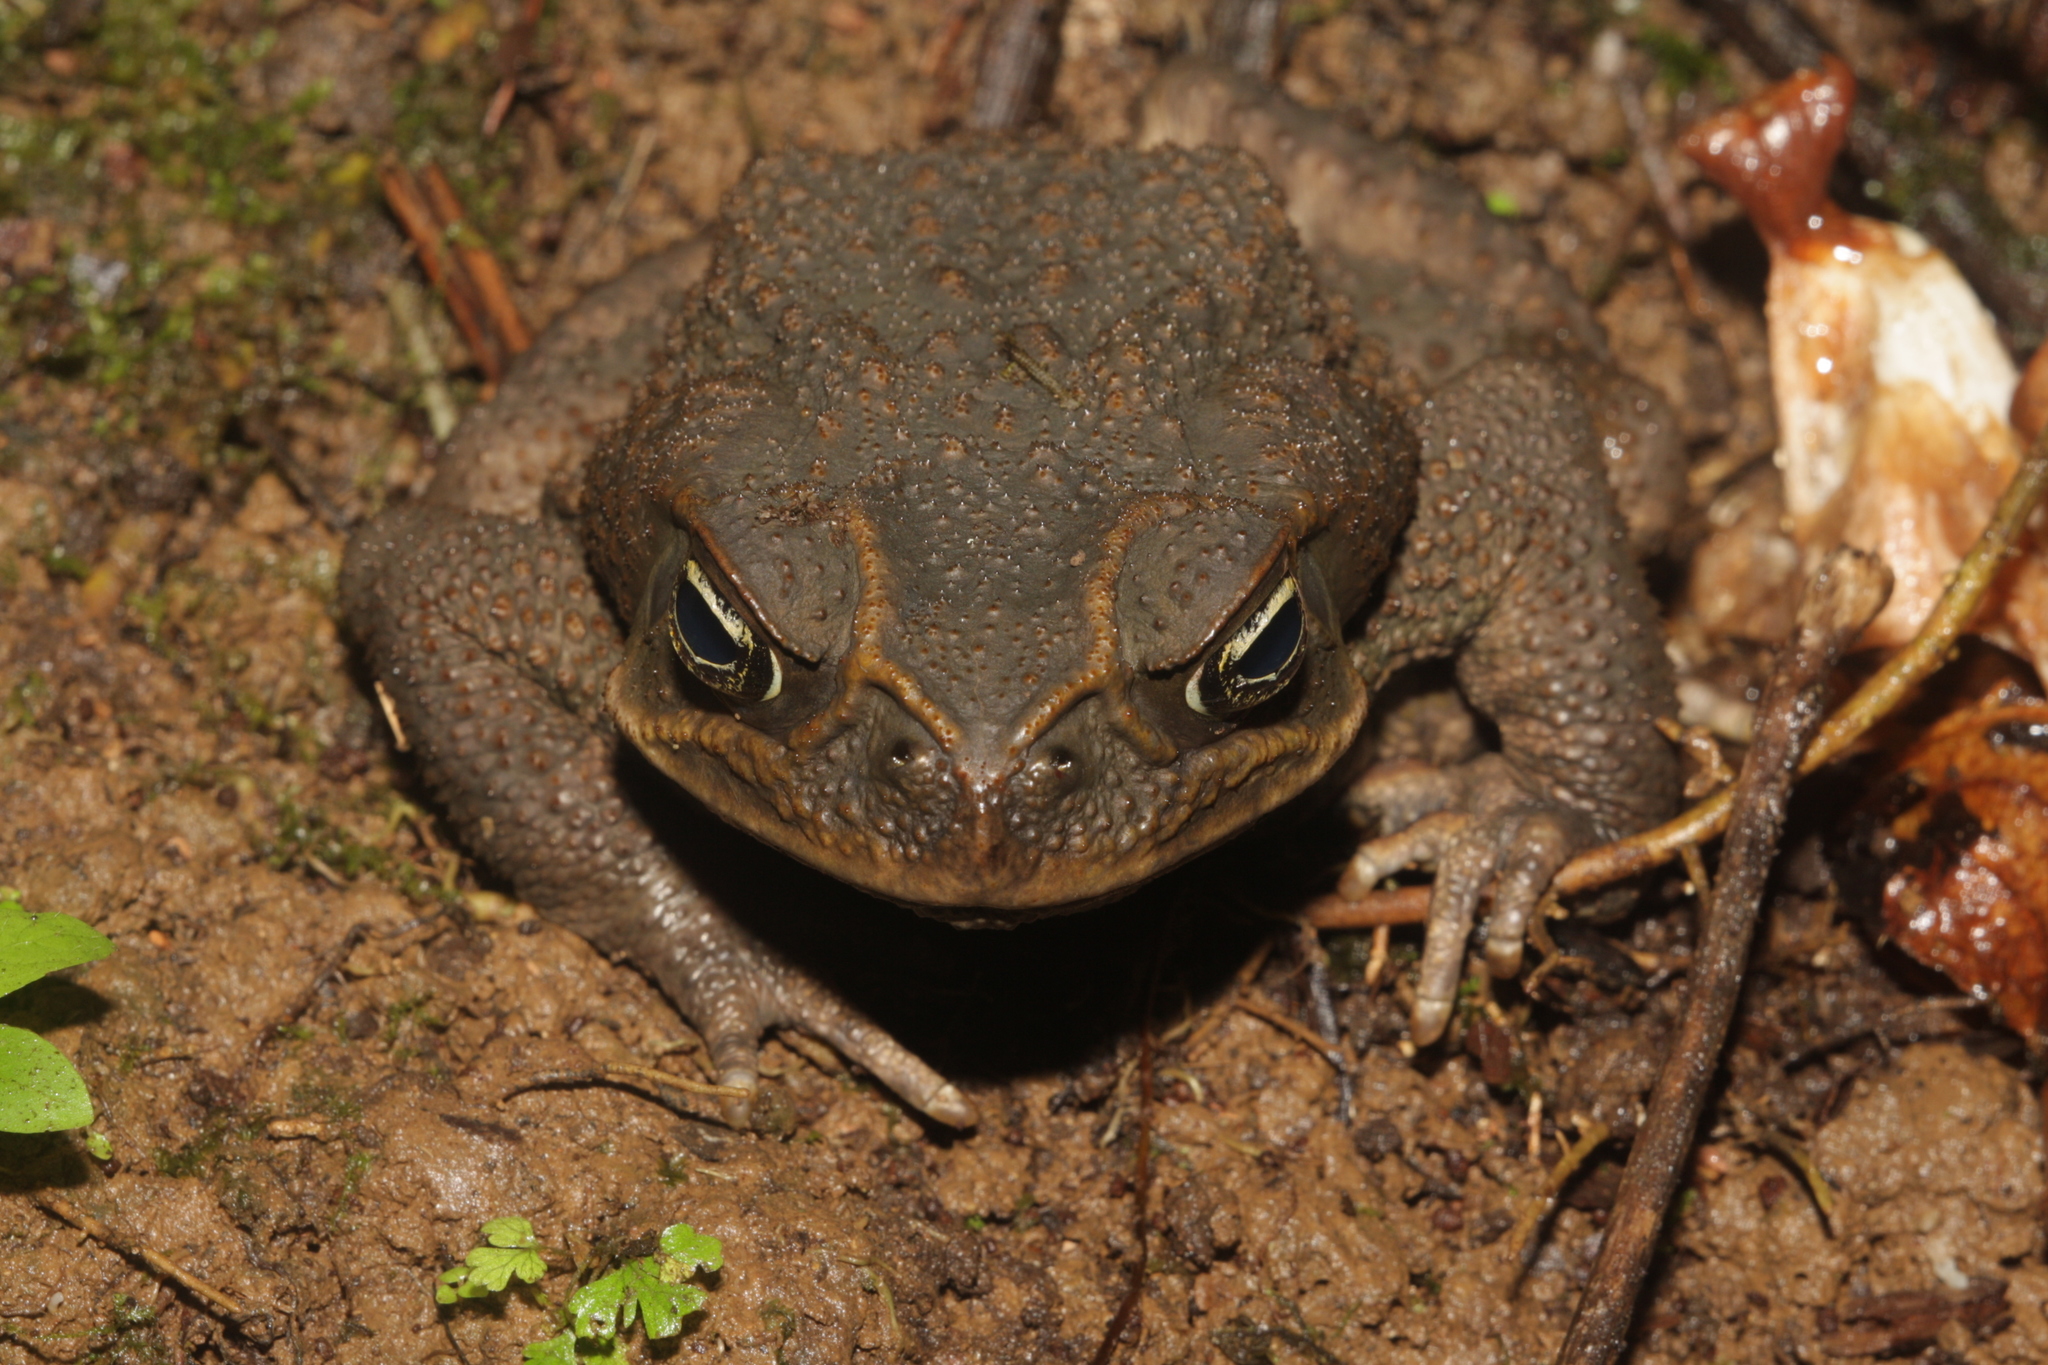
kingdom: Animalia
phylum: Chordata
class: Amphibia
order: Anura
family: Bufonidae
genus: Rhinella
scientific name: Rhinella horribilis
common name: Mesoamerican cane toad
